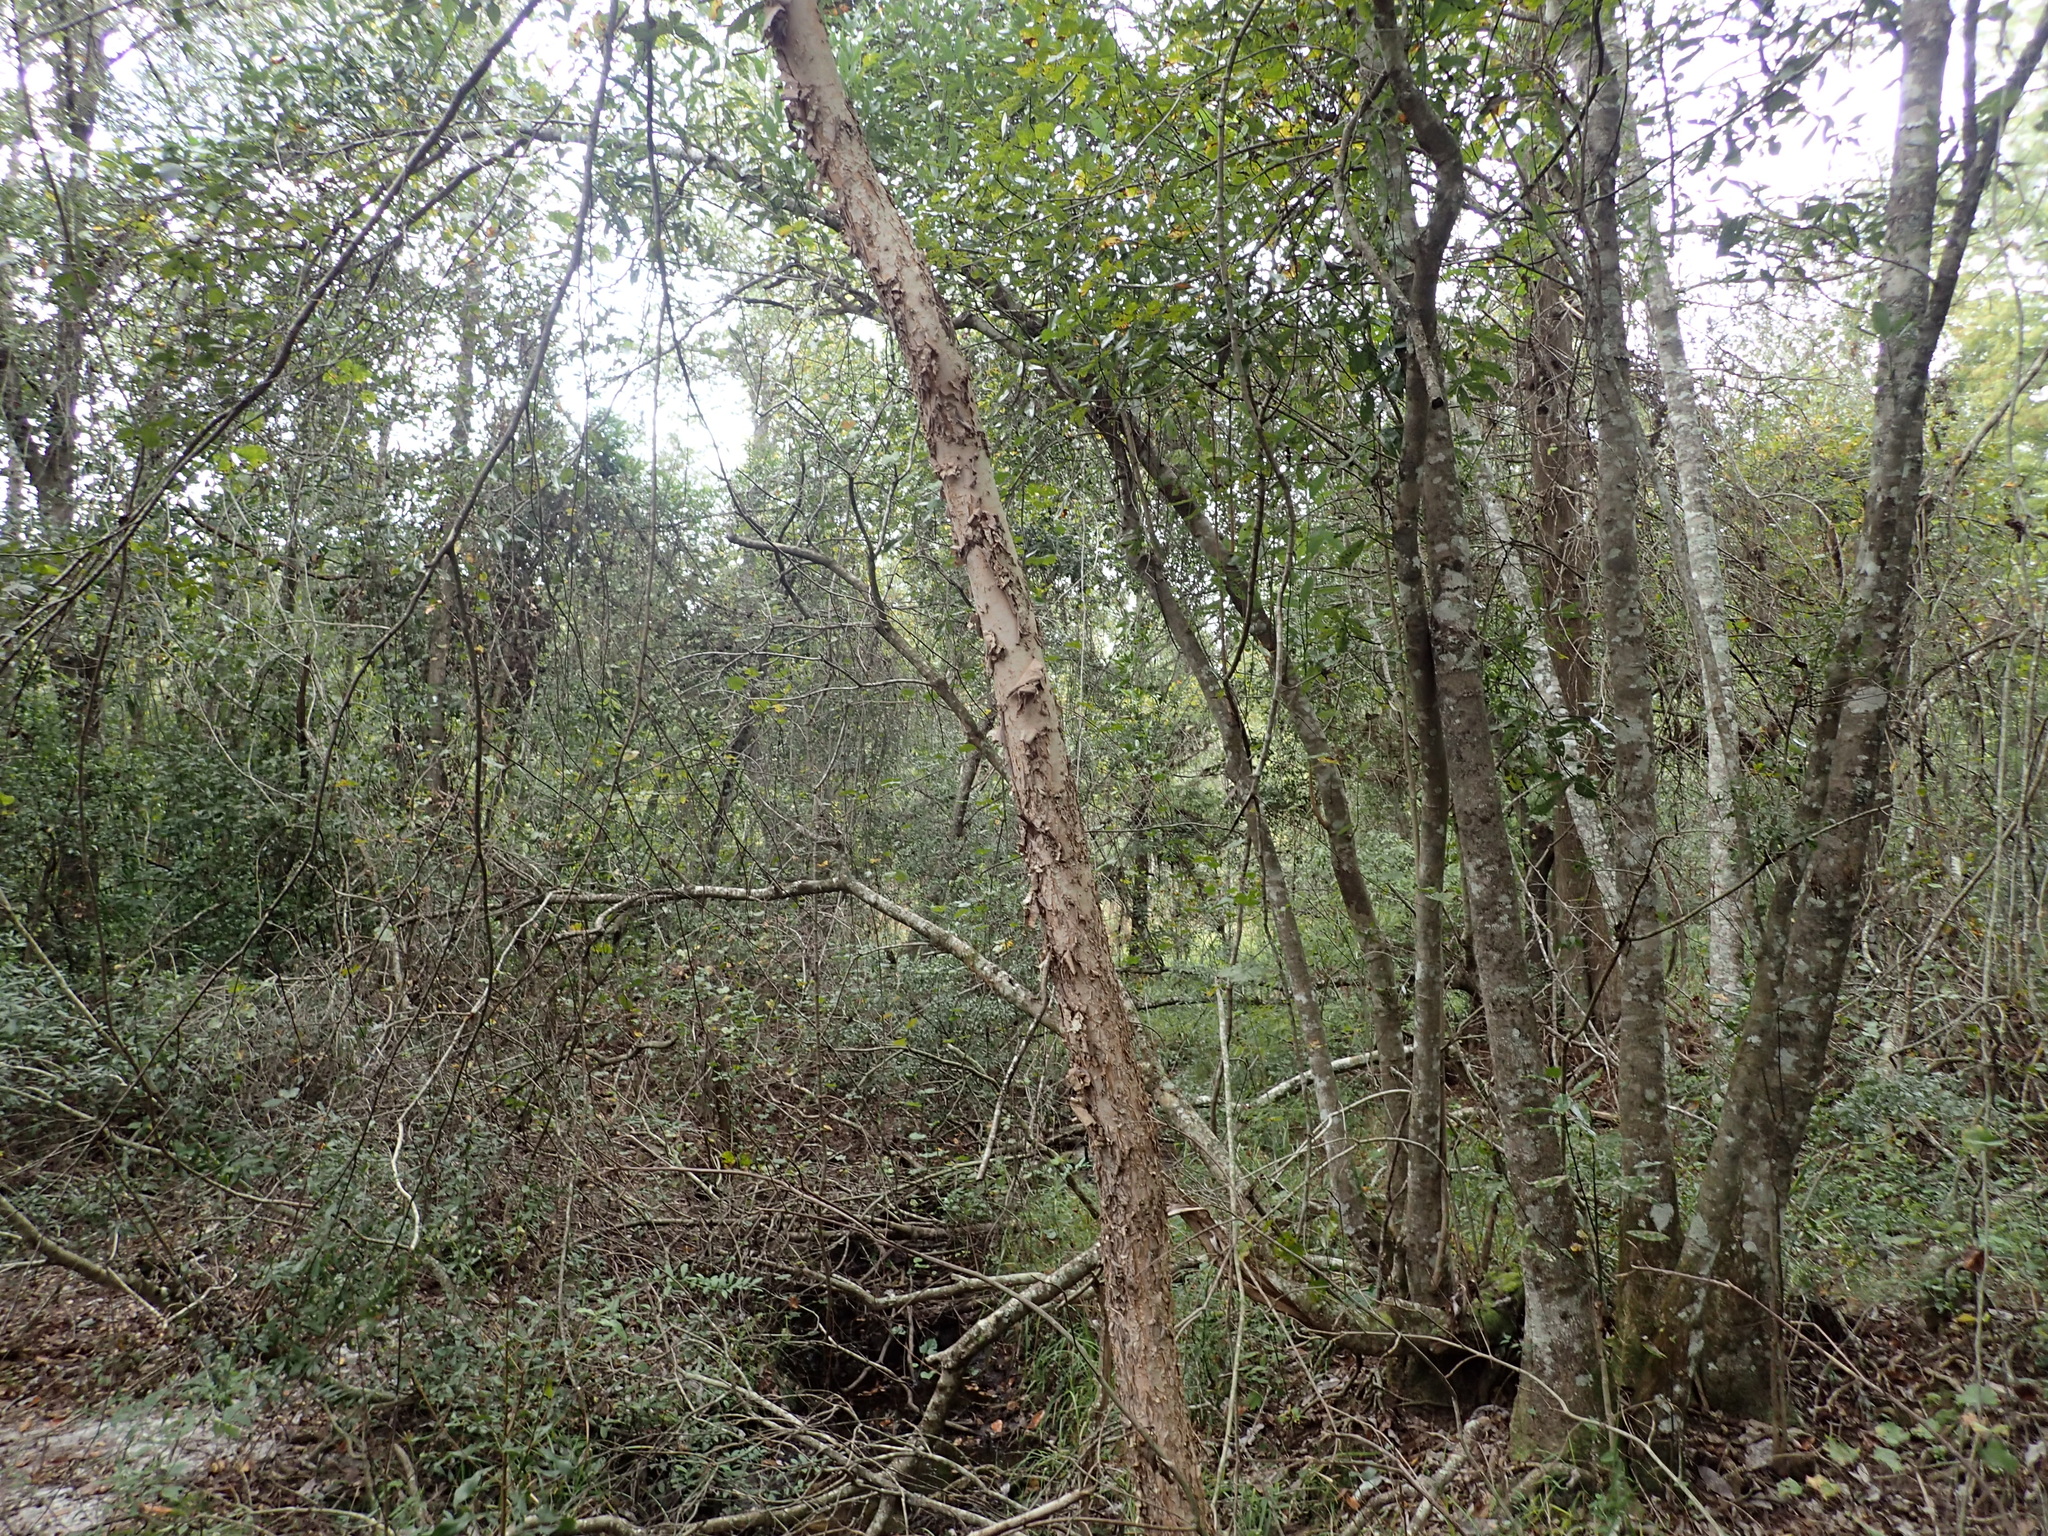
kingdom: Plantae
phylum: Tracheophyta
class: Magnoliopsida
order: Fagales
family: Betulaceae
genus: Betula
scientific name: Betula nigra
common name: Black birch
